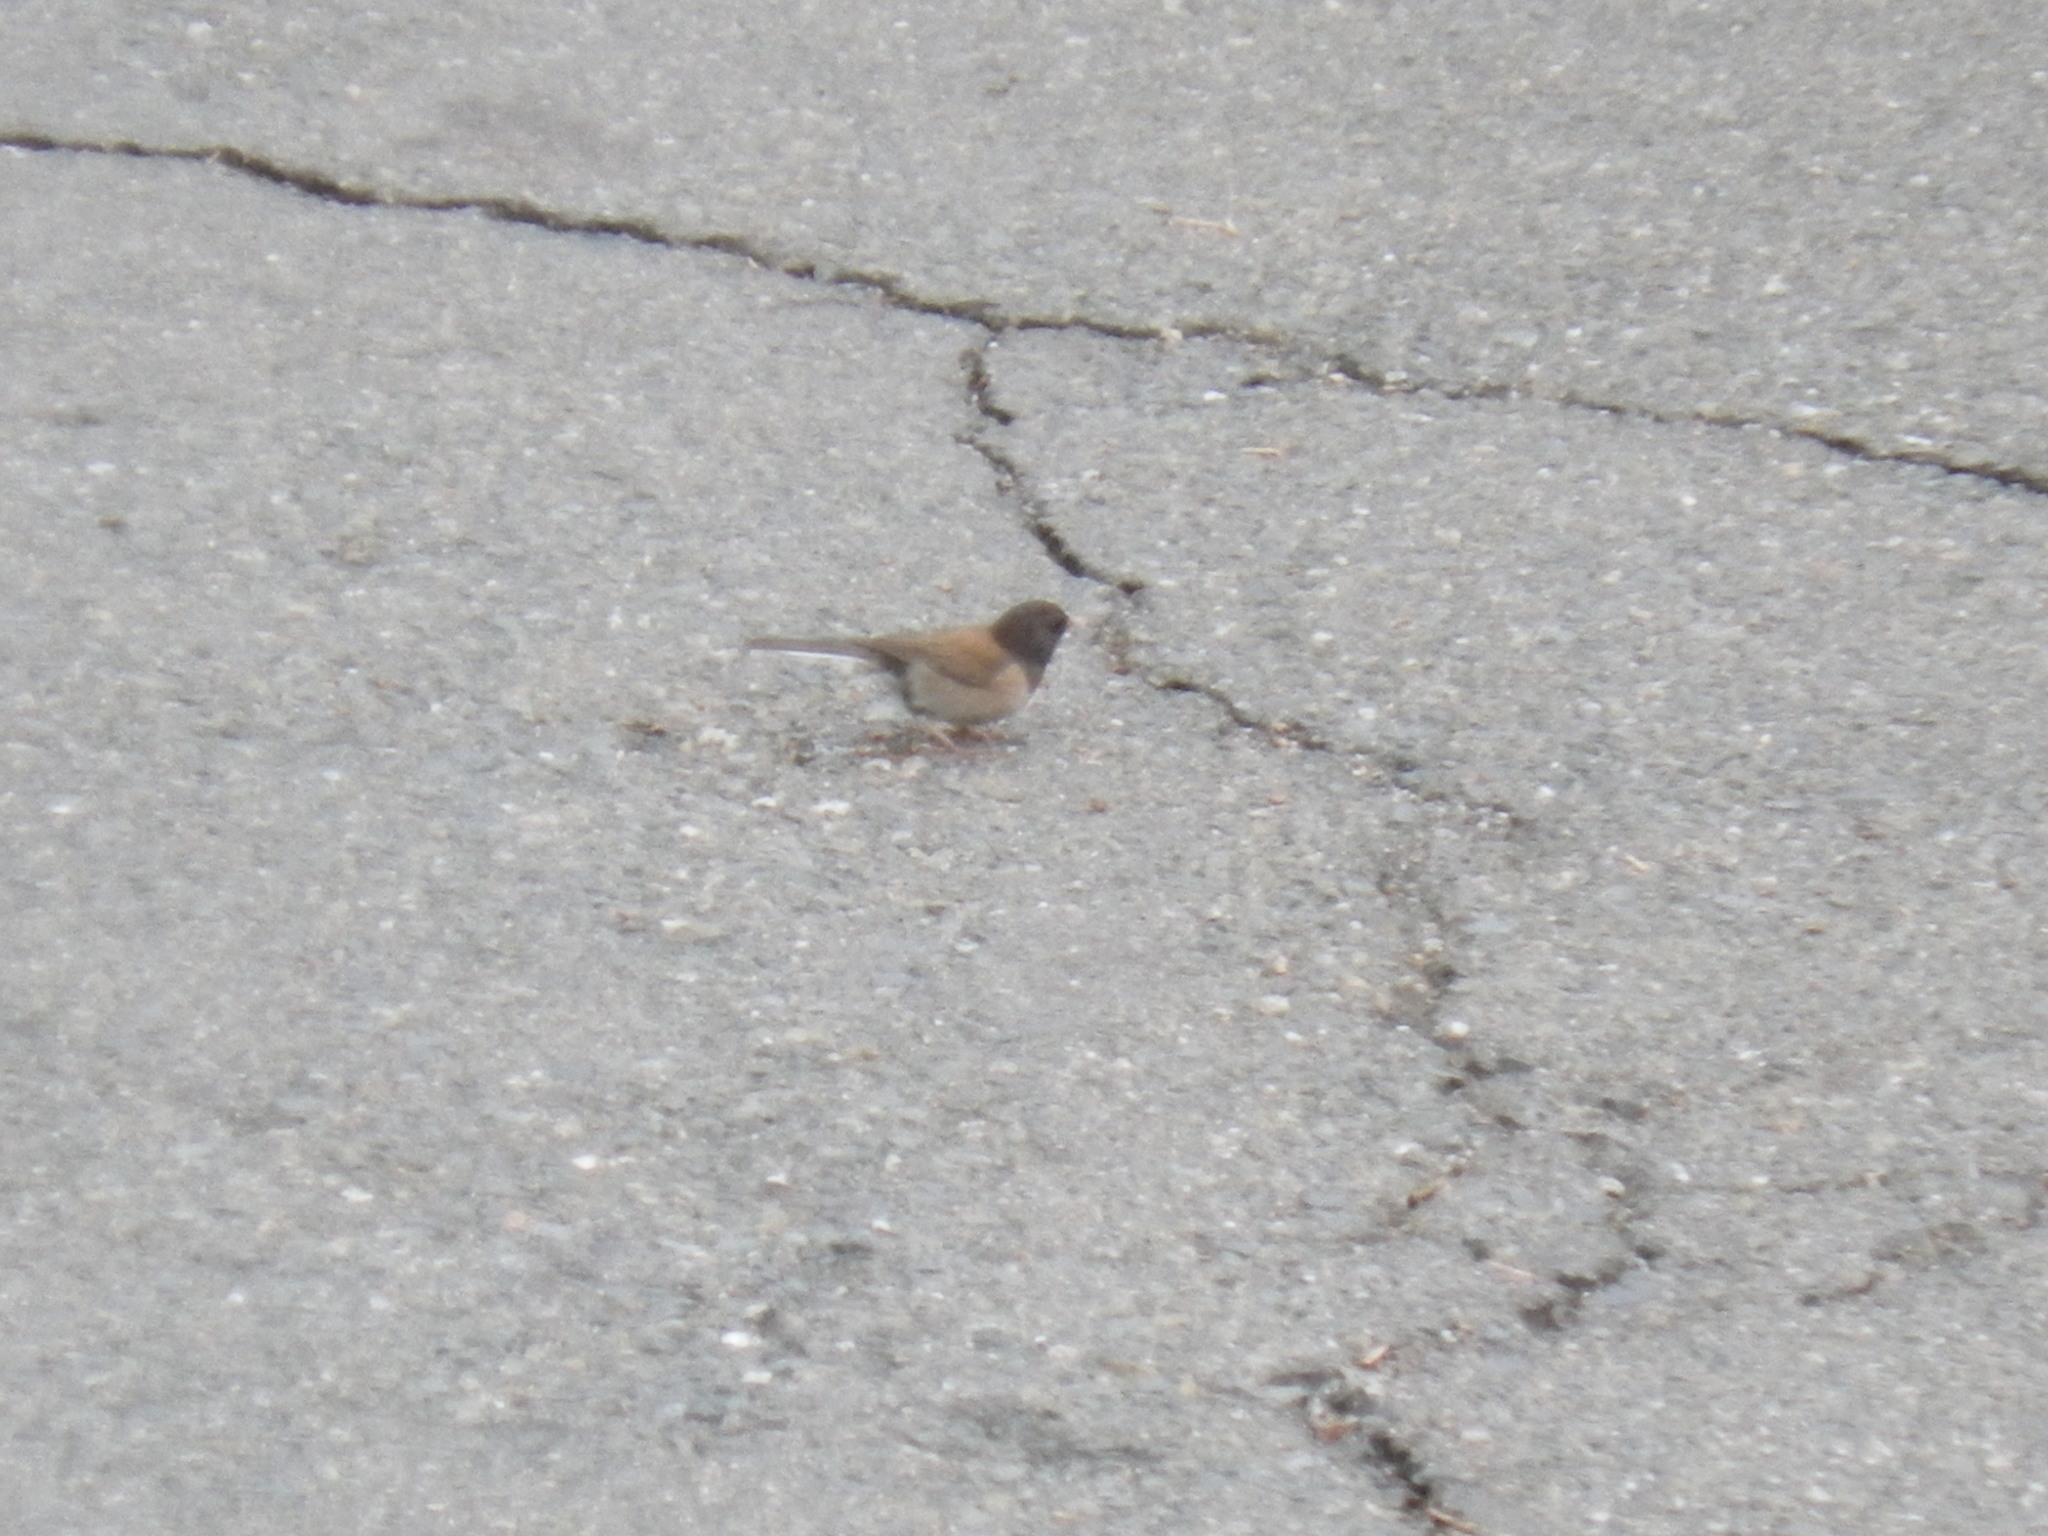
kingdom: Animalia
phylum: Chordata
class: Aves
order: Passeriformes
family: Passerellidae
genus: Junco
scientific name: Junco hyemalis
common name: Dark-eyed junco
